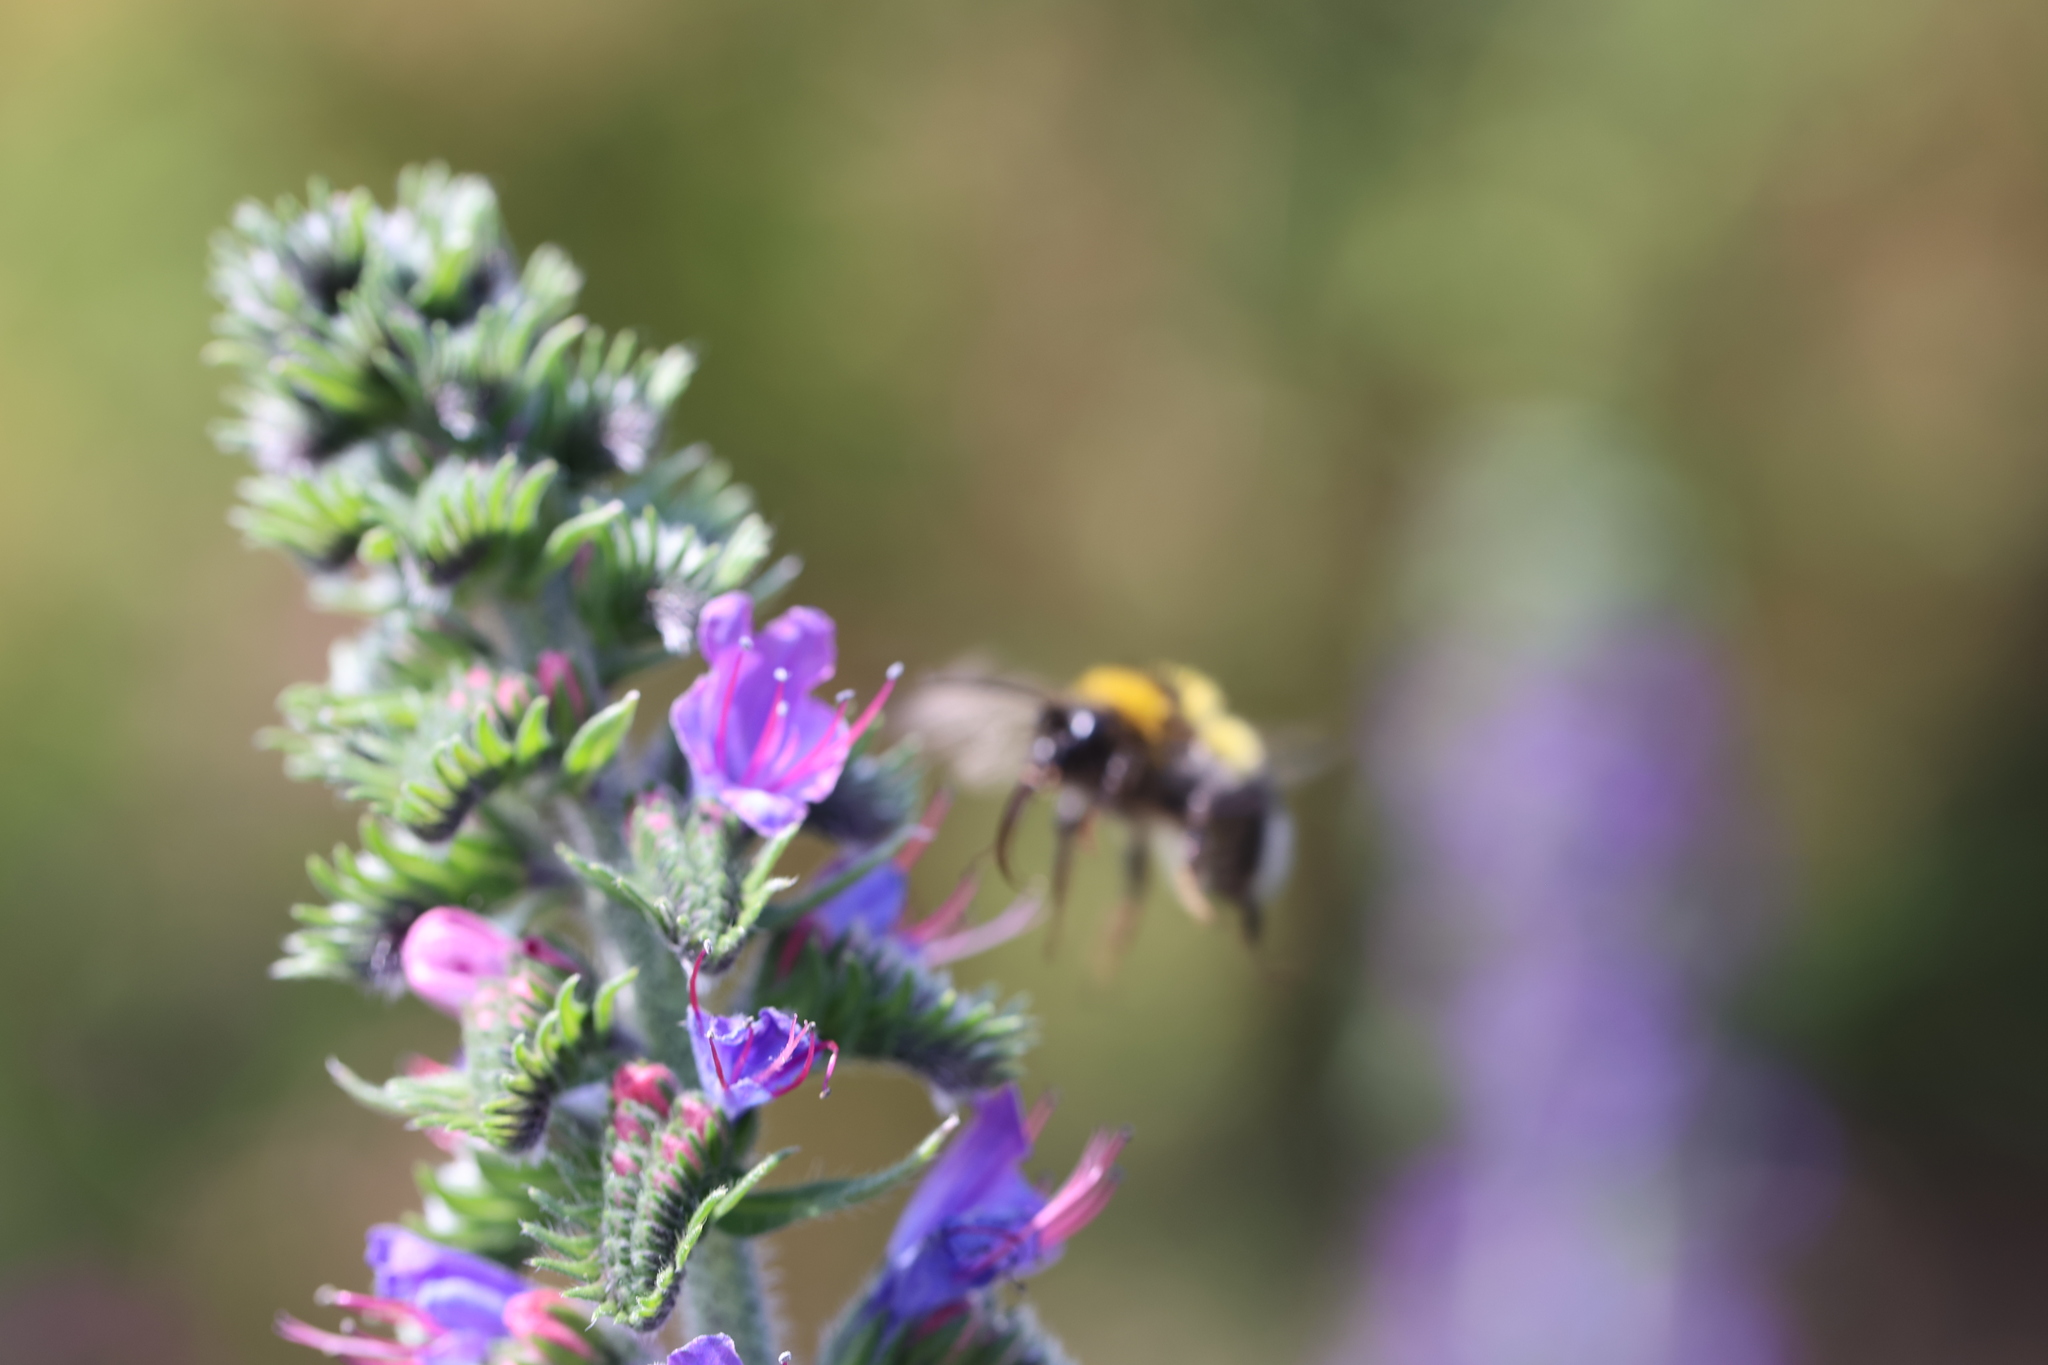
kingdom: Animalia
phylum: Arthropoda
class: Insecta
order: Hymenoptera
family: Apidae
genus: Bombus
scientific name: Bombus hortorum
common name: Garden bumblebee
